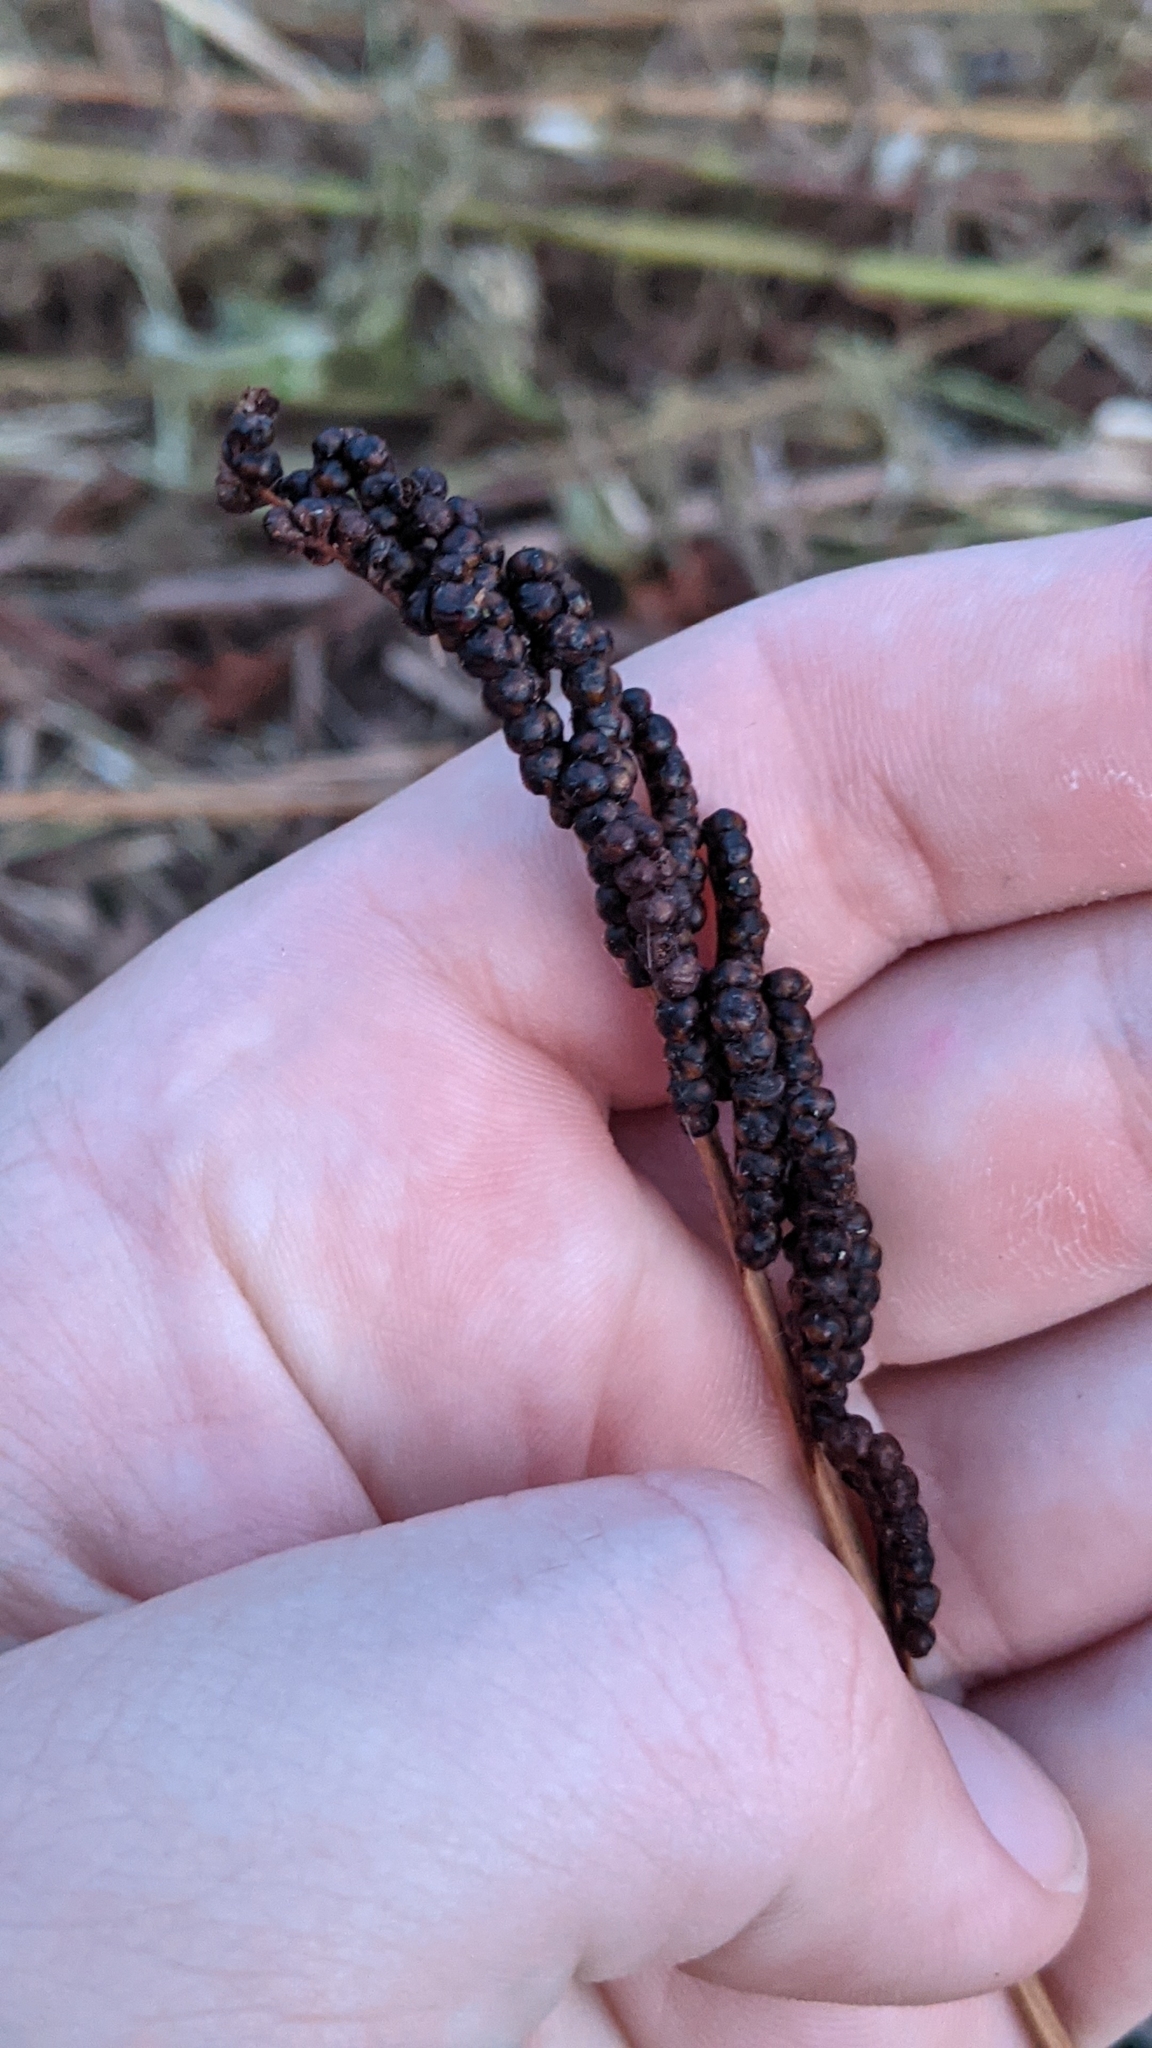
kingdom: Plantae
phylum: Tracheophyta
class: Polypodiopsida
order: Polypodiales
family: Onocleaceae
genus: Onoclea
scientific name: Onoclea sensibilis
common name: Sensitive fern
